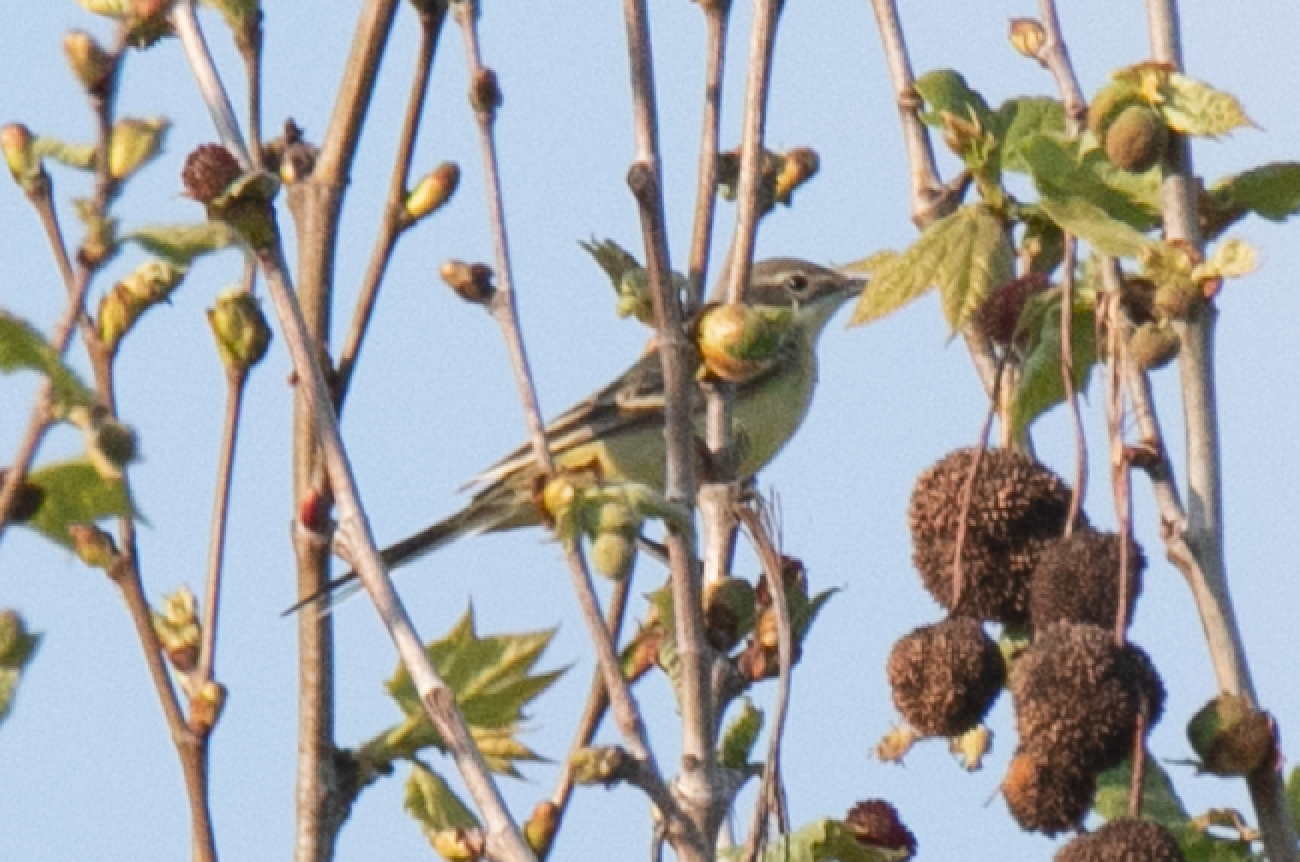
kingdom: Animalia
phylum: Chordata
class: Aves
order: Passeriformes
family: Motacillidae
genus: Motacilla
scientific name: Motacilla flava
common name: Western yellow wagtail
